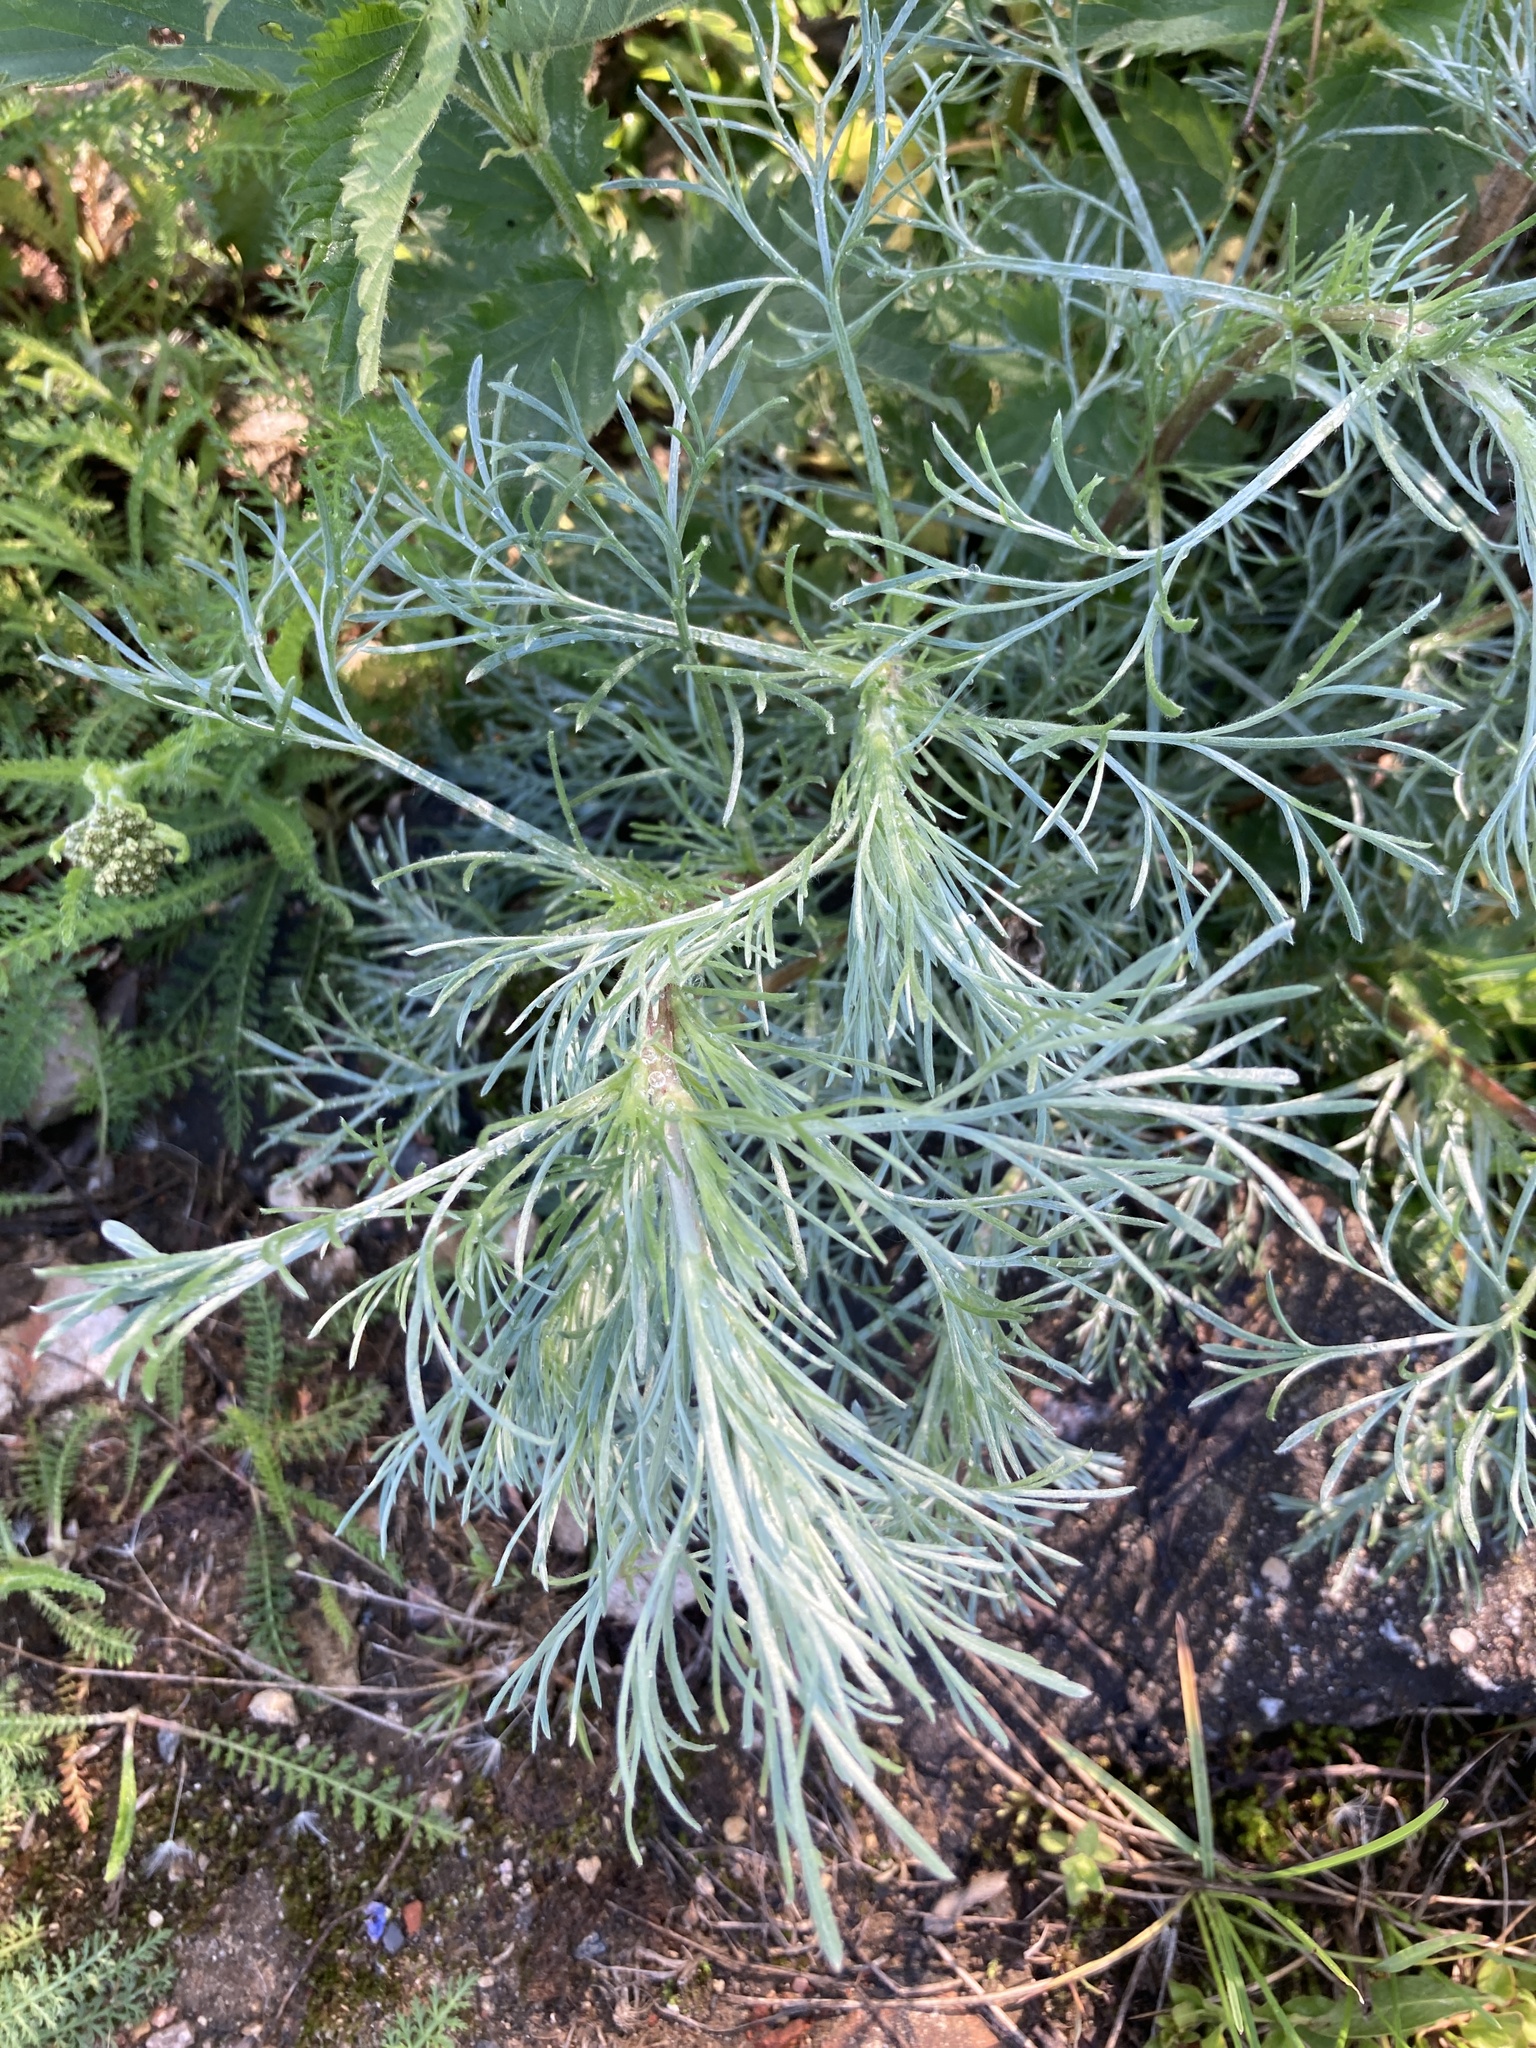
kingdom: Plantae
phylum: Tracheophyta
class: Magnoliopsida
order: Asterales
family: Asteraceae
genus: Artemisia
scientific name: Artemisia campestris
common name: Field wormwood
